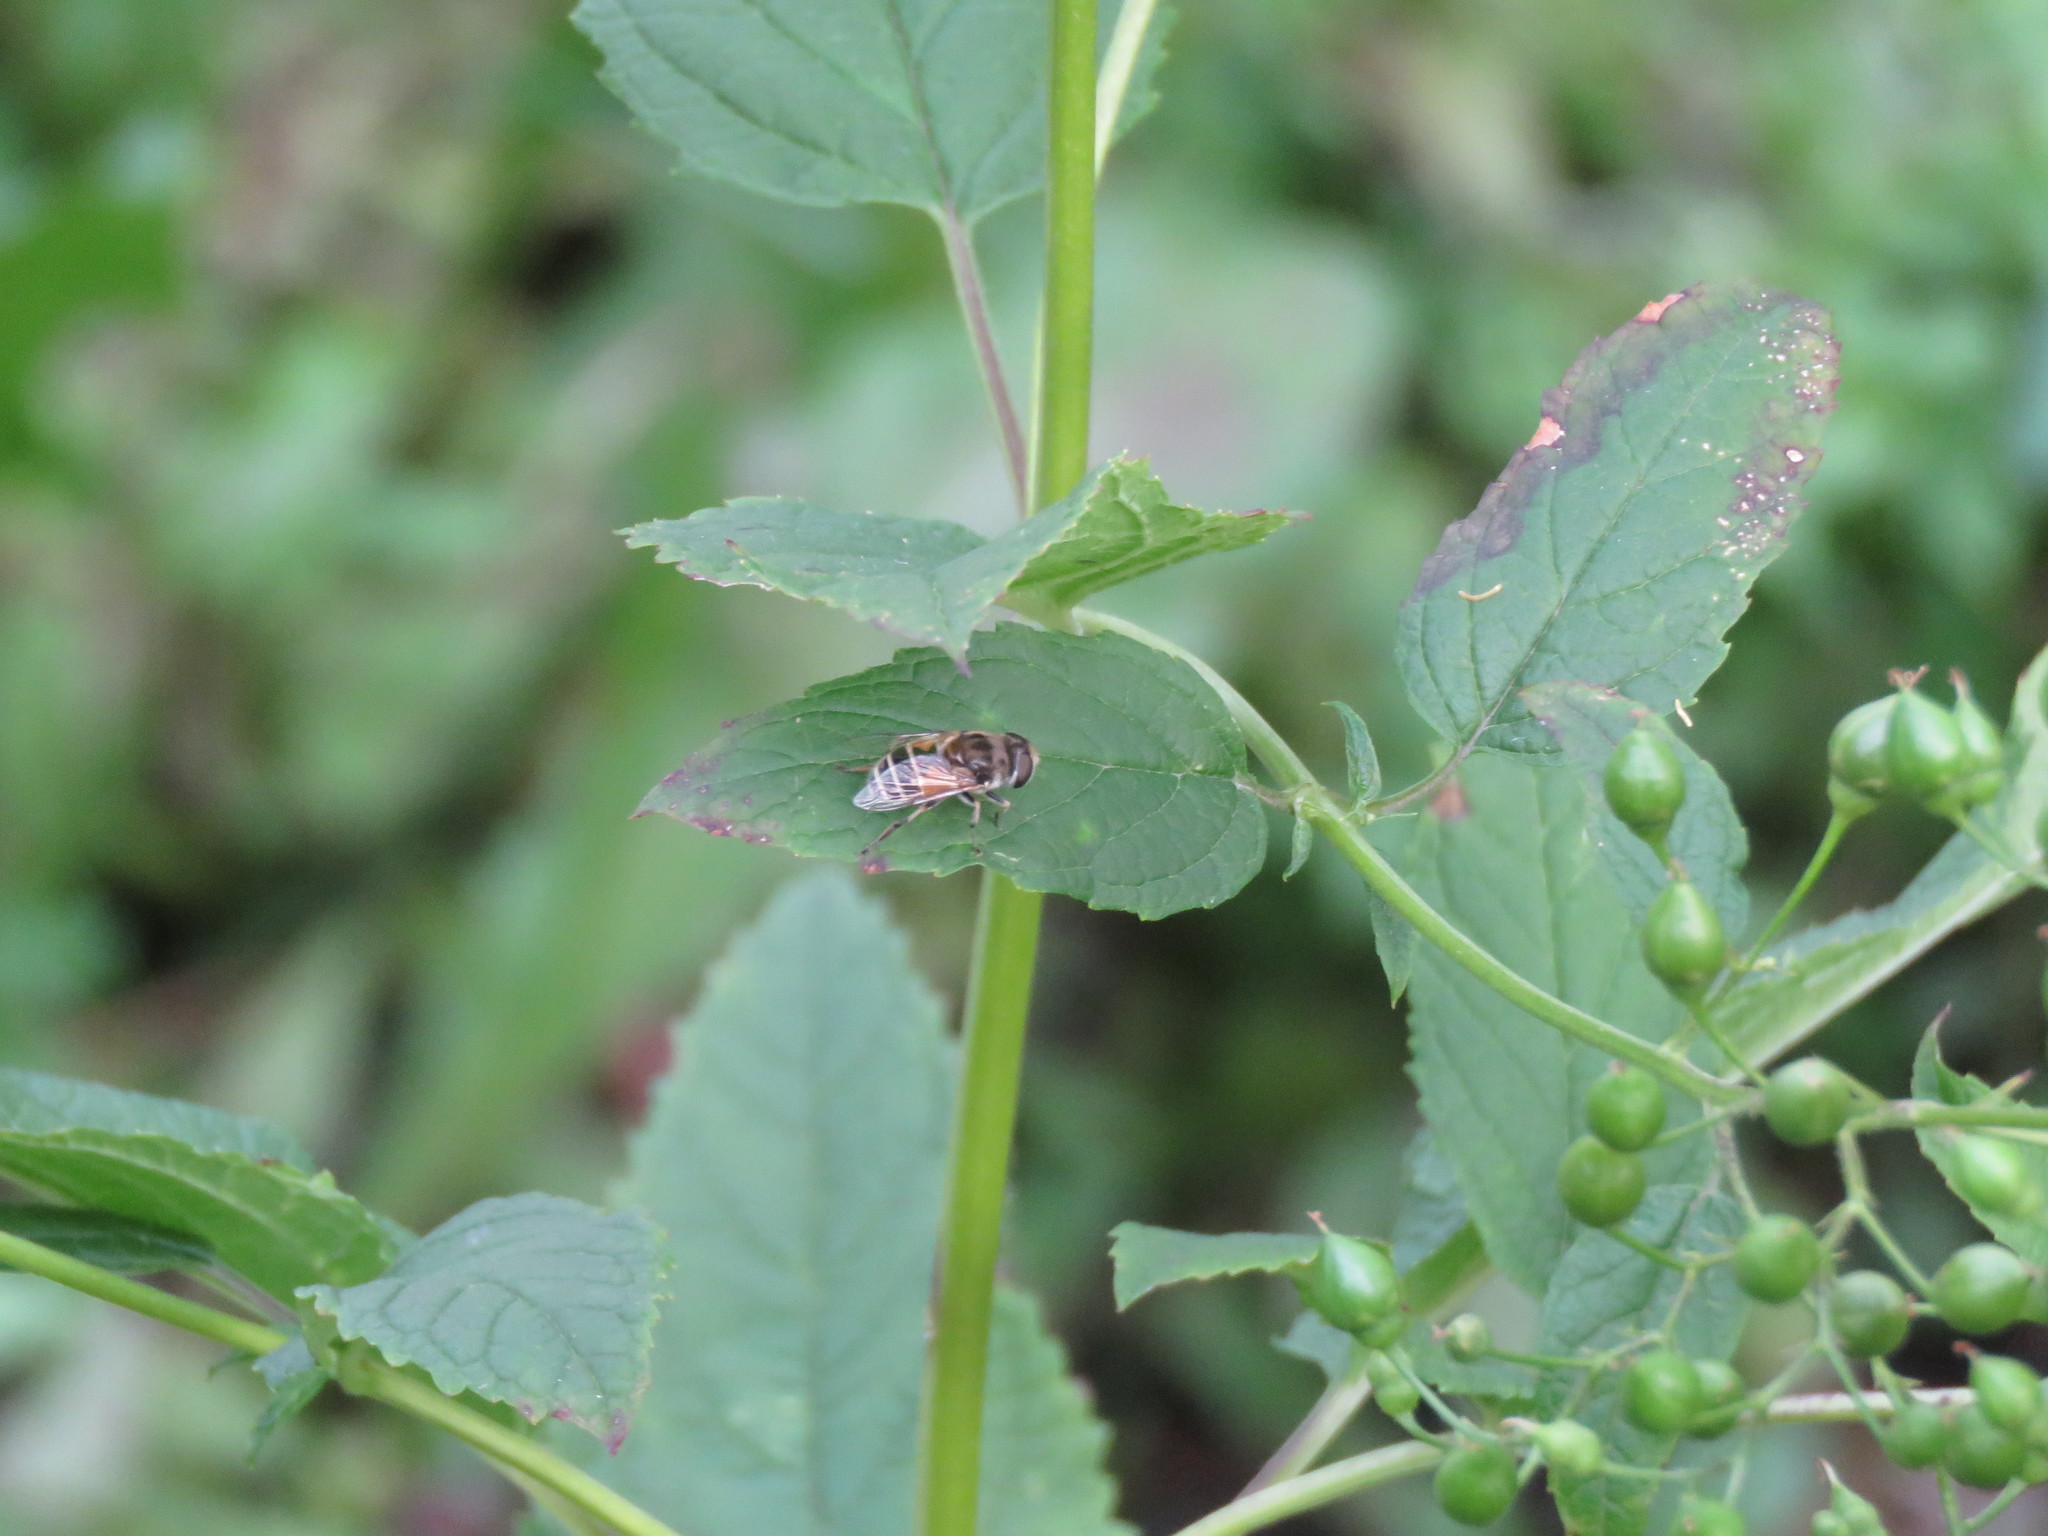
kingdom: Animalia
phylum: Arthropoda
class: Insecta
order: Diptera
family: Syrphidae
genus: Eristalis
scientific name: Eristalis arbustorum
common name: Hover fly
